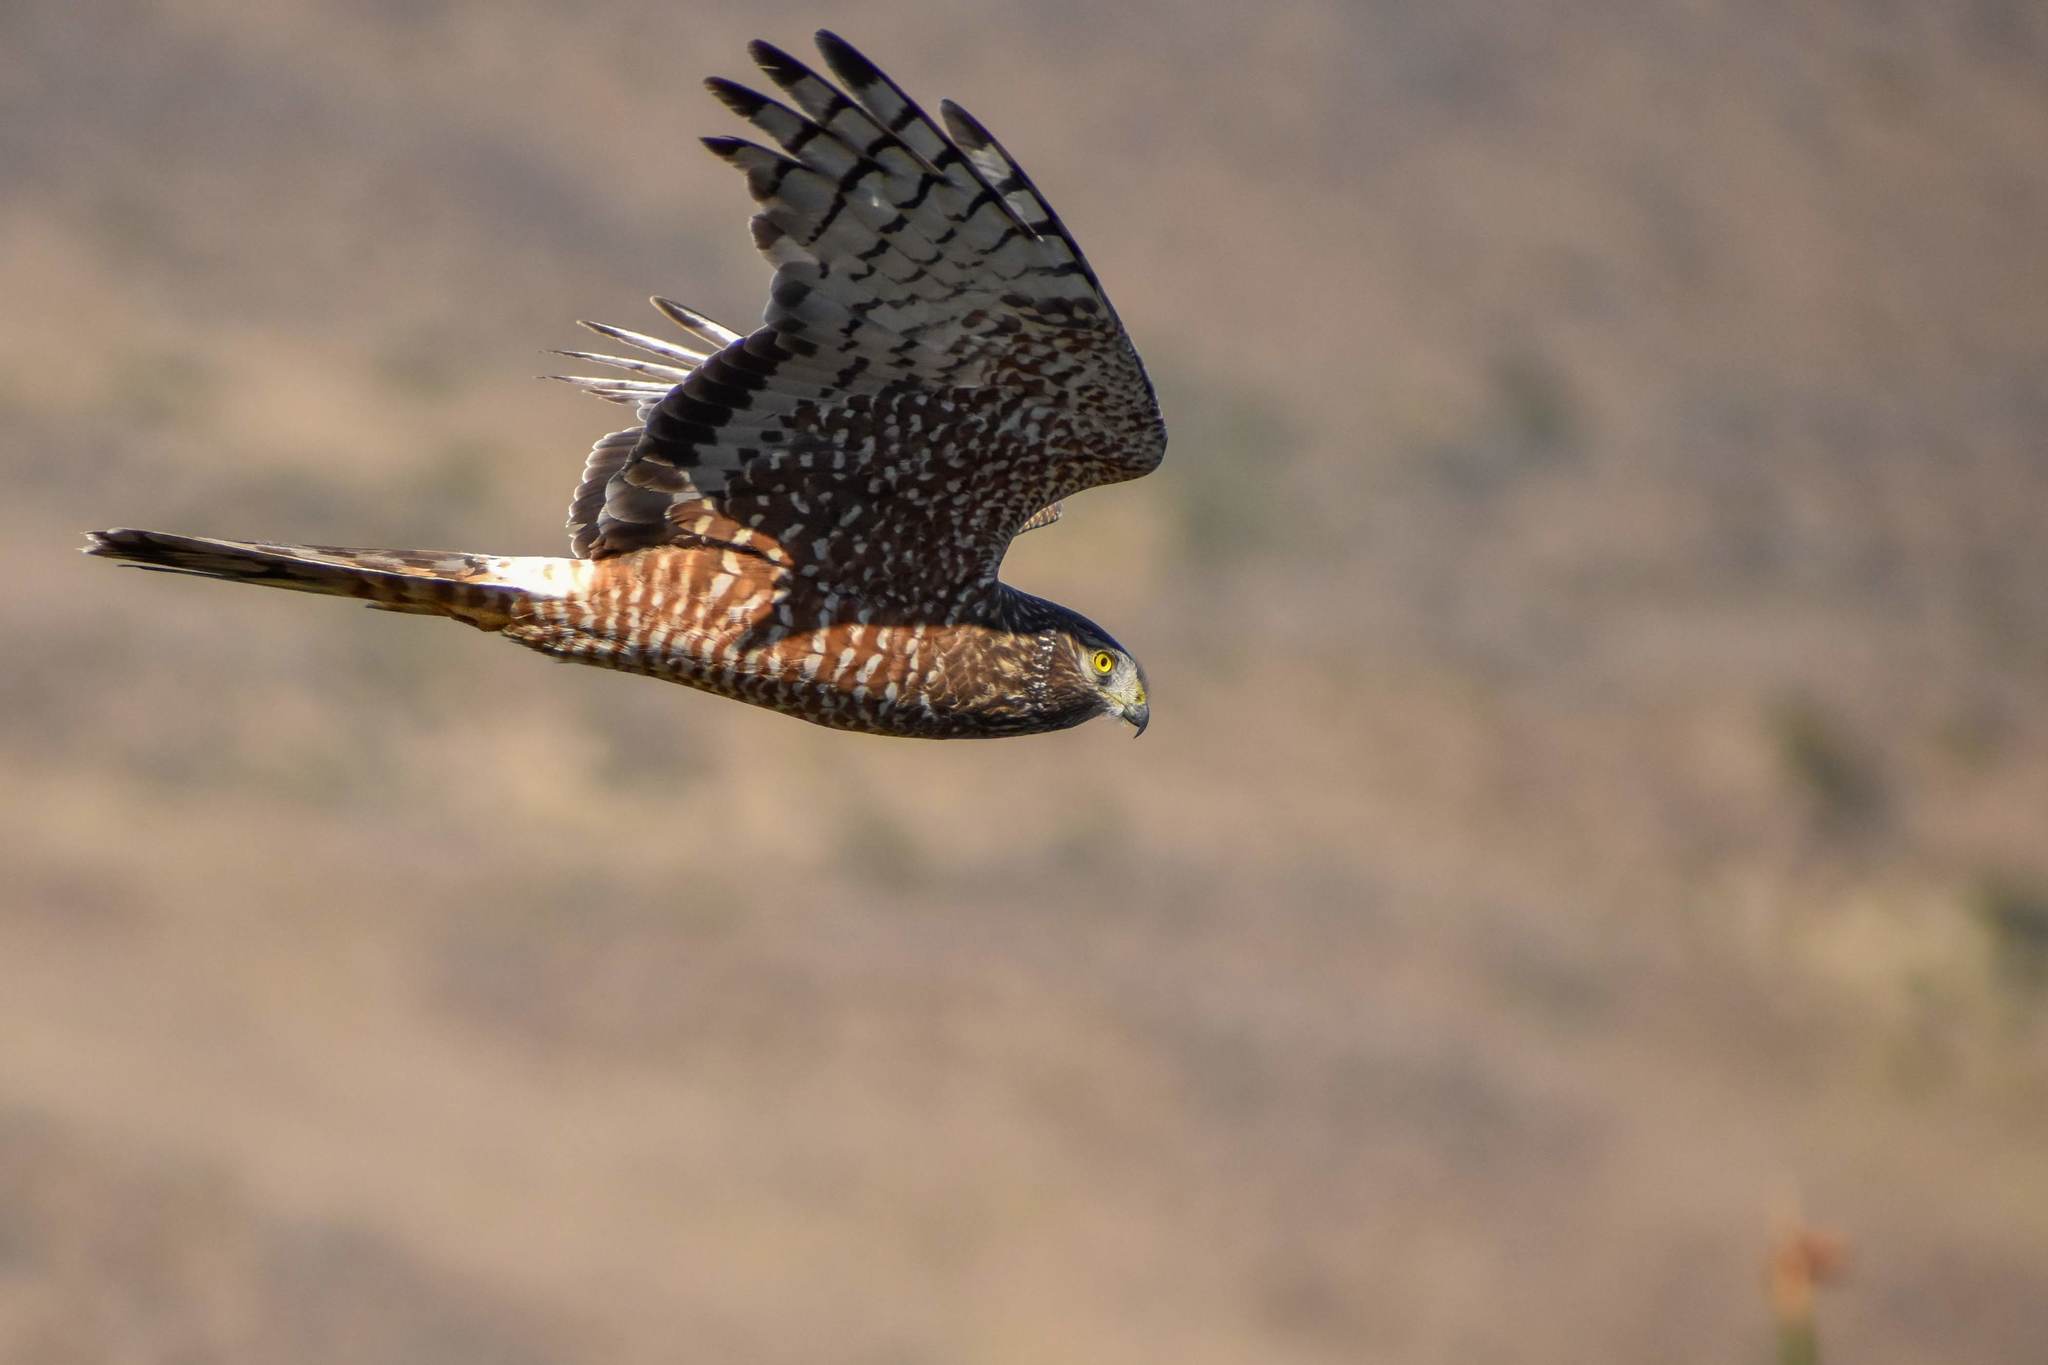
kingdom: Animalia
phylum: Chordata
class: Aves
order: Accipitriformes
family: Accipitridae
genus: Circus
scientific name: Circus cinereus
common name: Cinereous harrier
